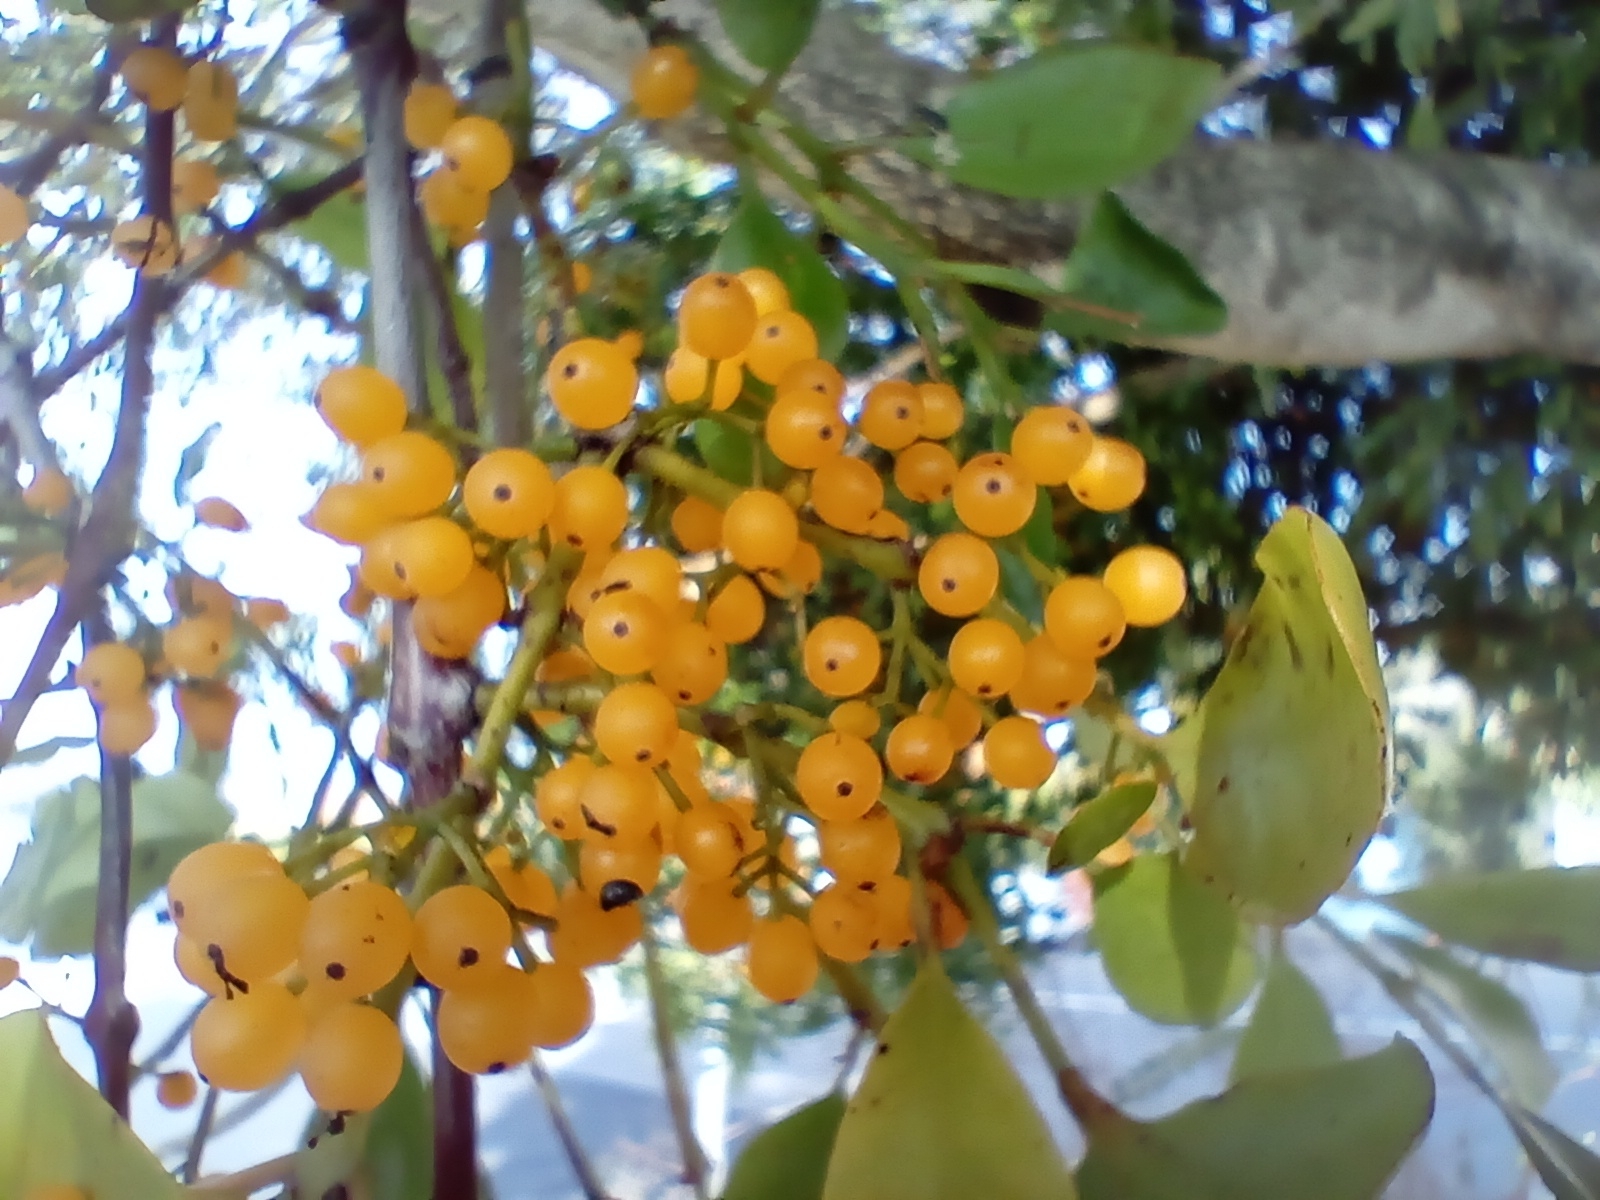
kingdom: Plantae
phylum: Tracheophyta
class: Magnoliopsida
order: Santalales
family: Loranthaceae
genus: Ileostylus
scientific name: Ileostylus micranthus
